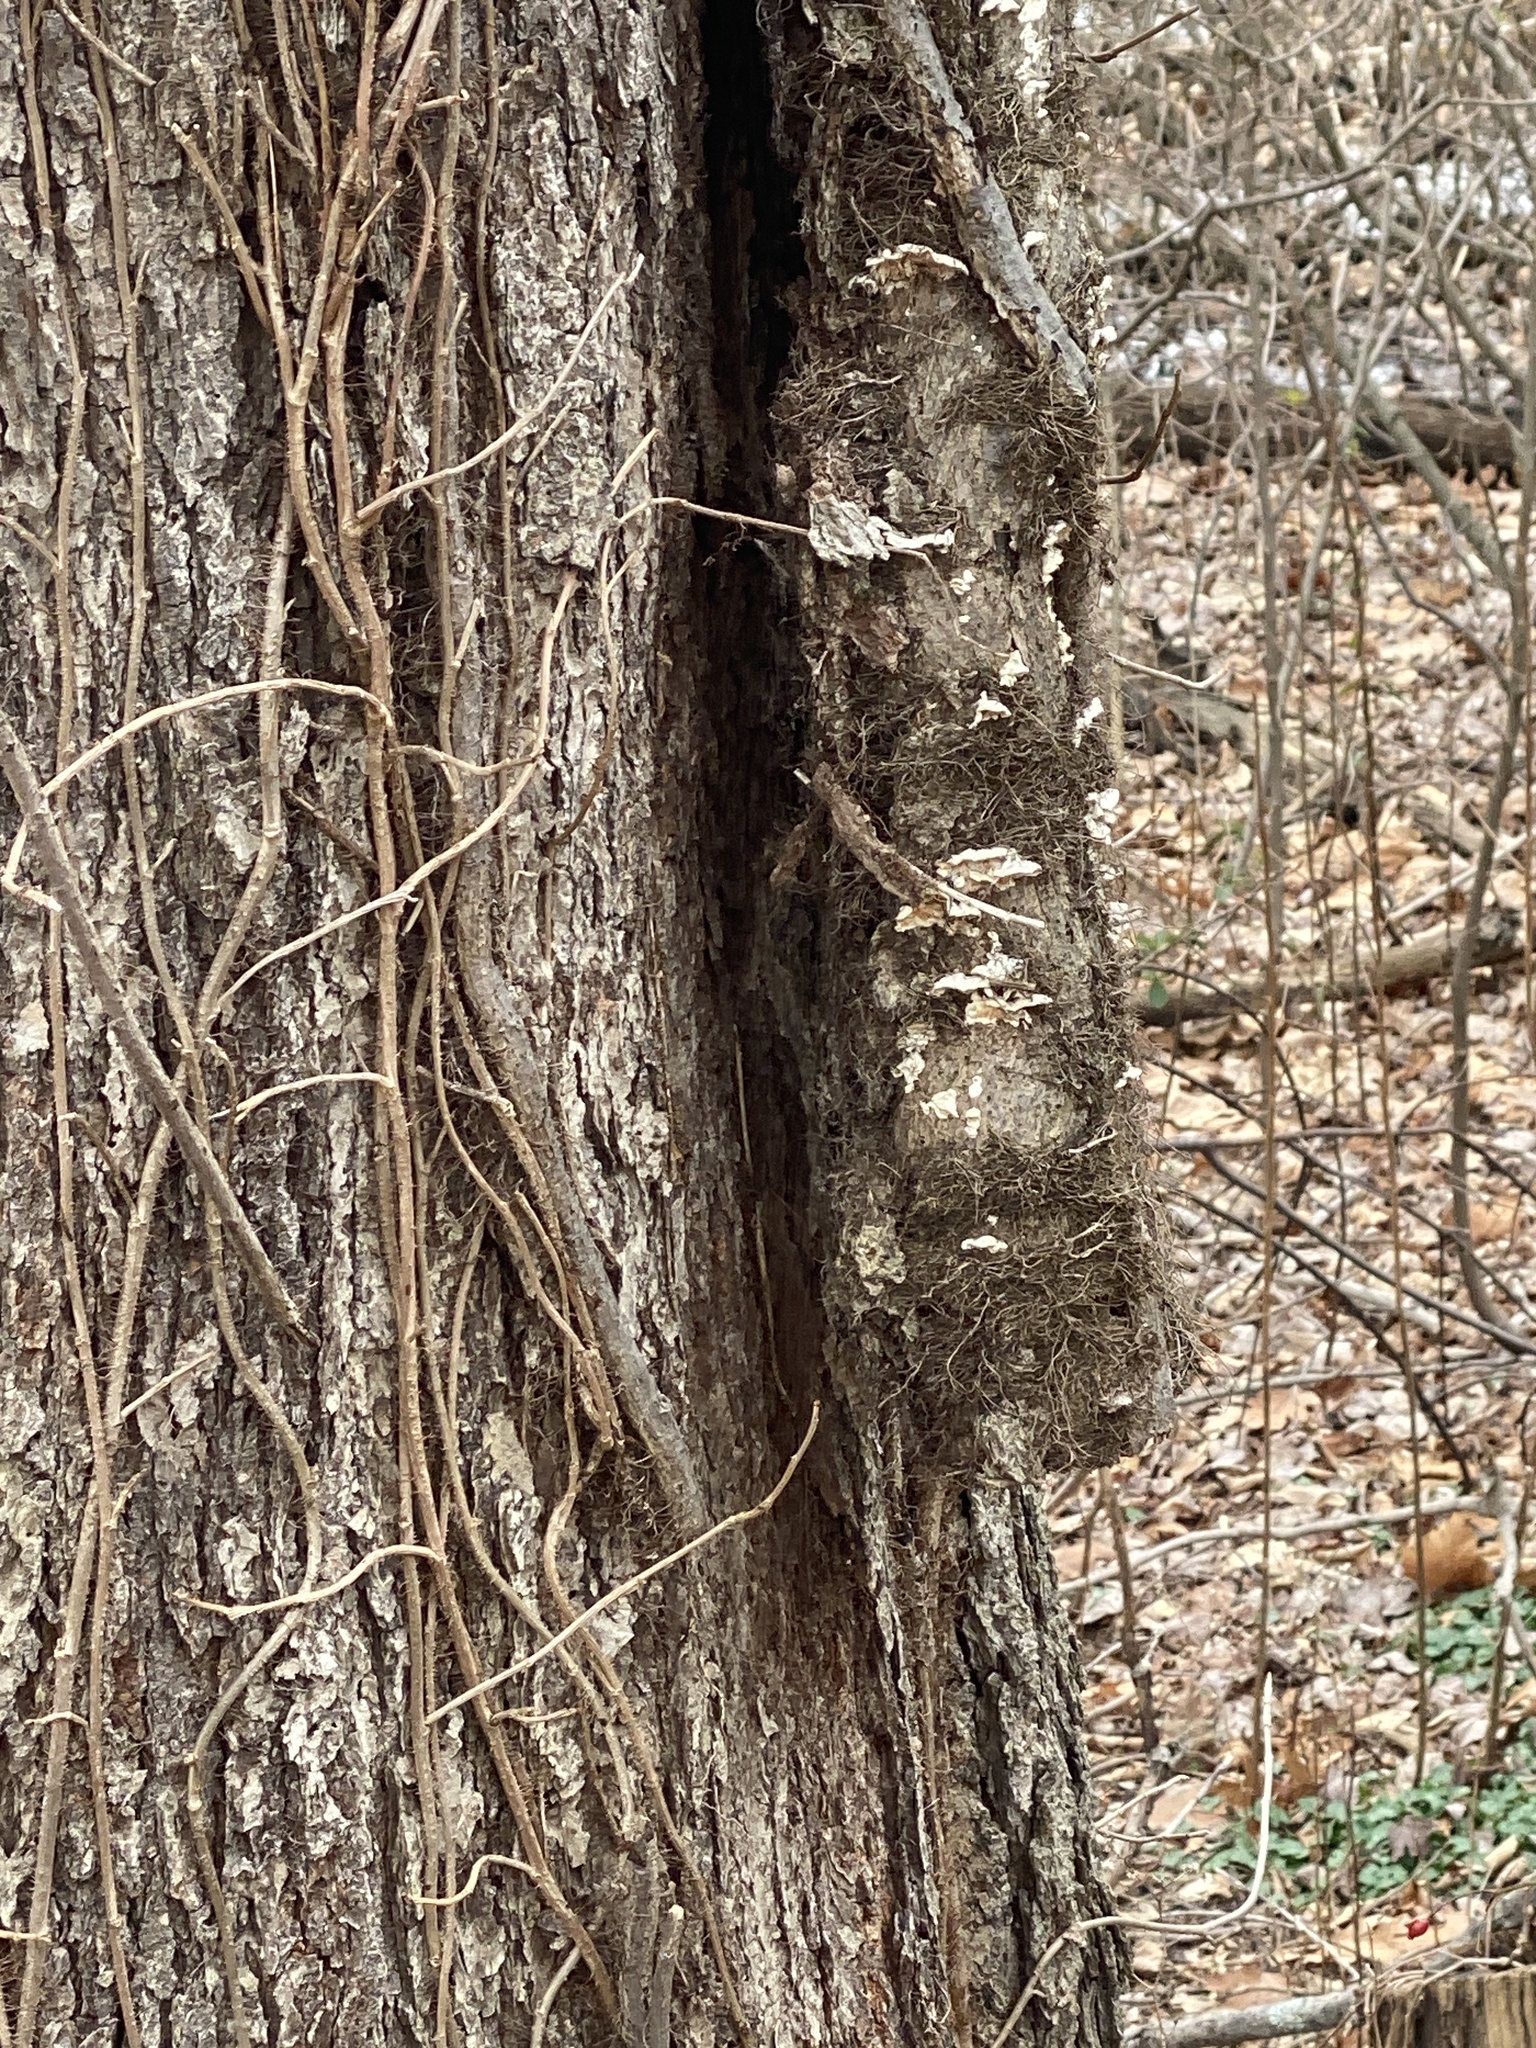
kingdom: Plantae
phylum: Tracheophyta
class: Magnoliopsida
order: Sapindales
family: Anacardiaceae
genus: Toxicodendron
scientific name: Toxicodendron radicans
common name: Poison ivy
